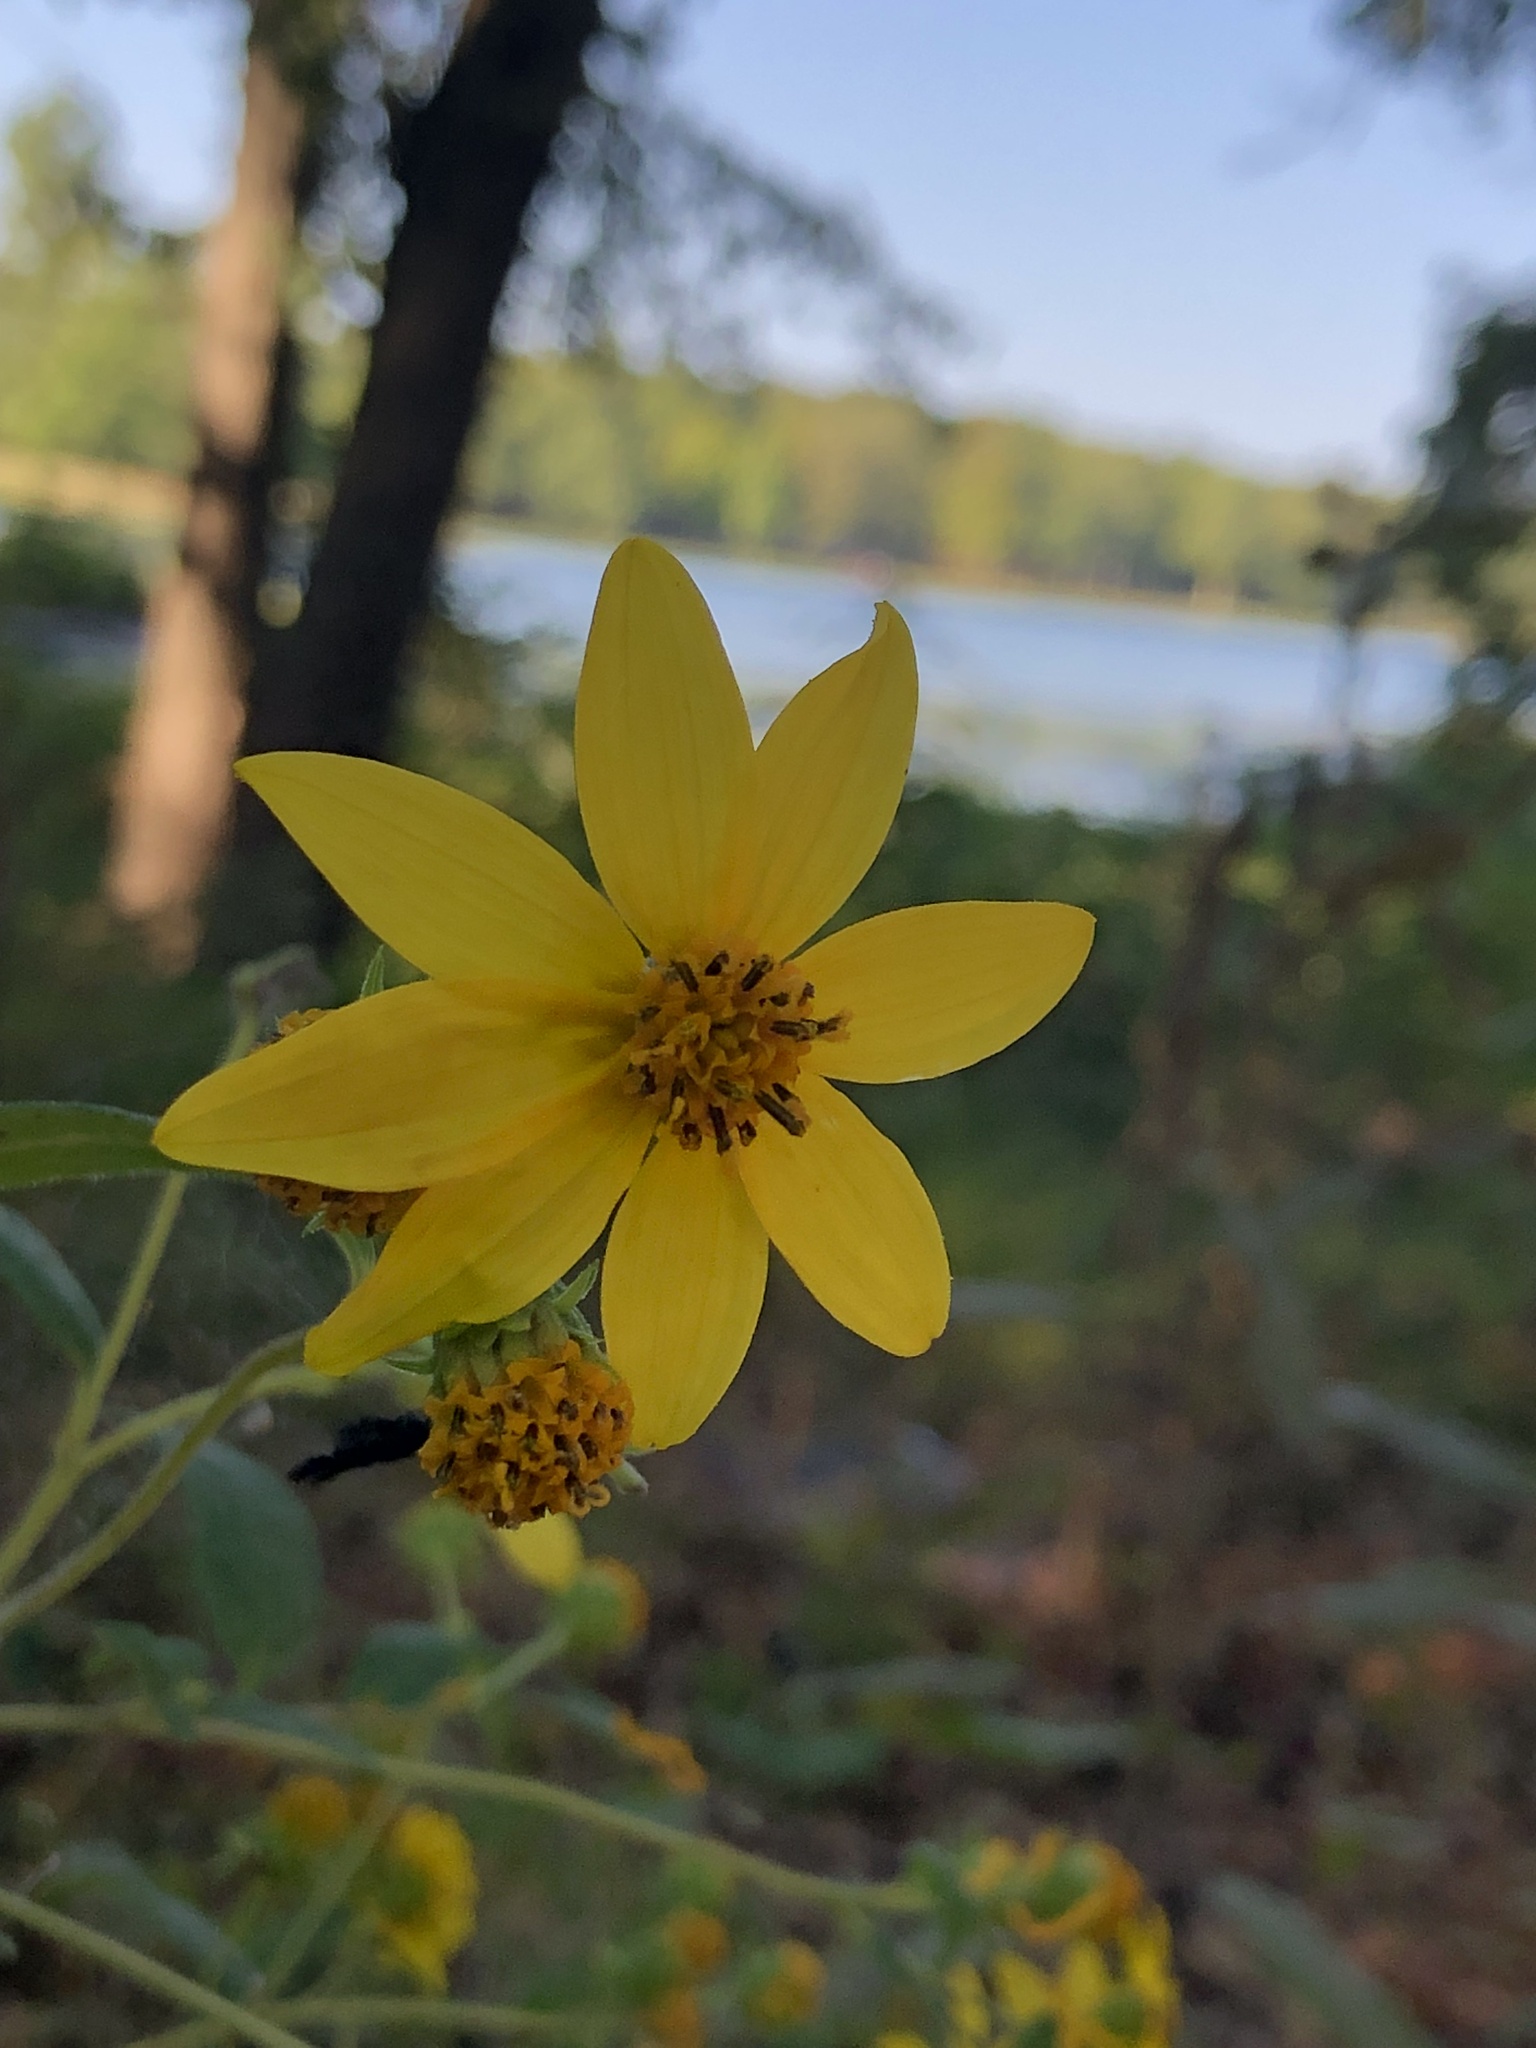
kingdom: Plantae
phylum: Tracheophyta
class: Magnoliopsida
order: Asterales
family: Asteraceae
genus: Bidens
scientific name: Bidens aristosa
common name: Western tickseed
